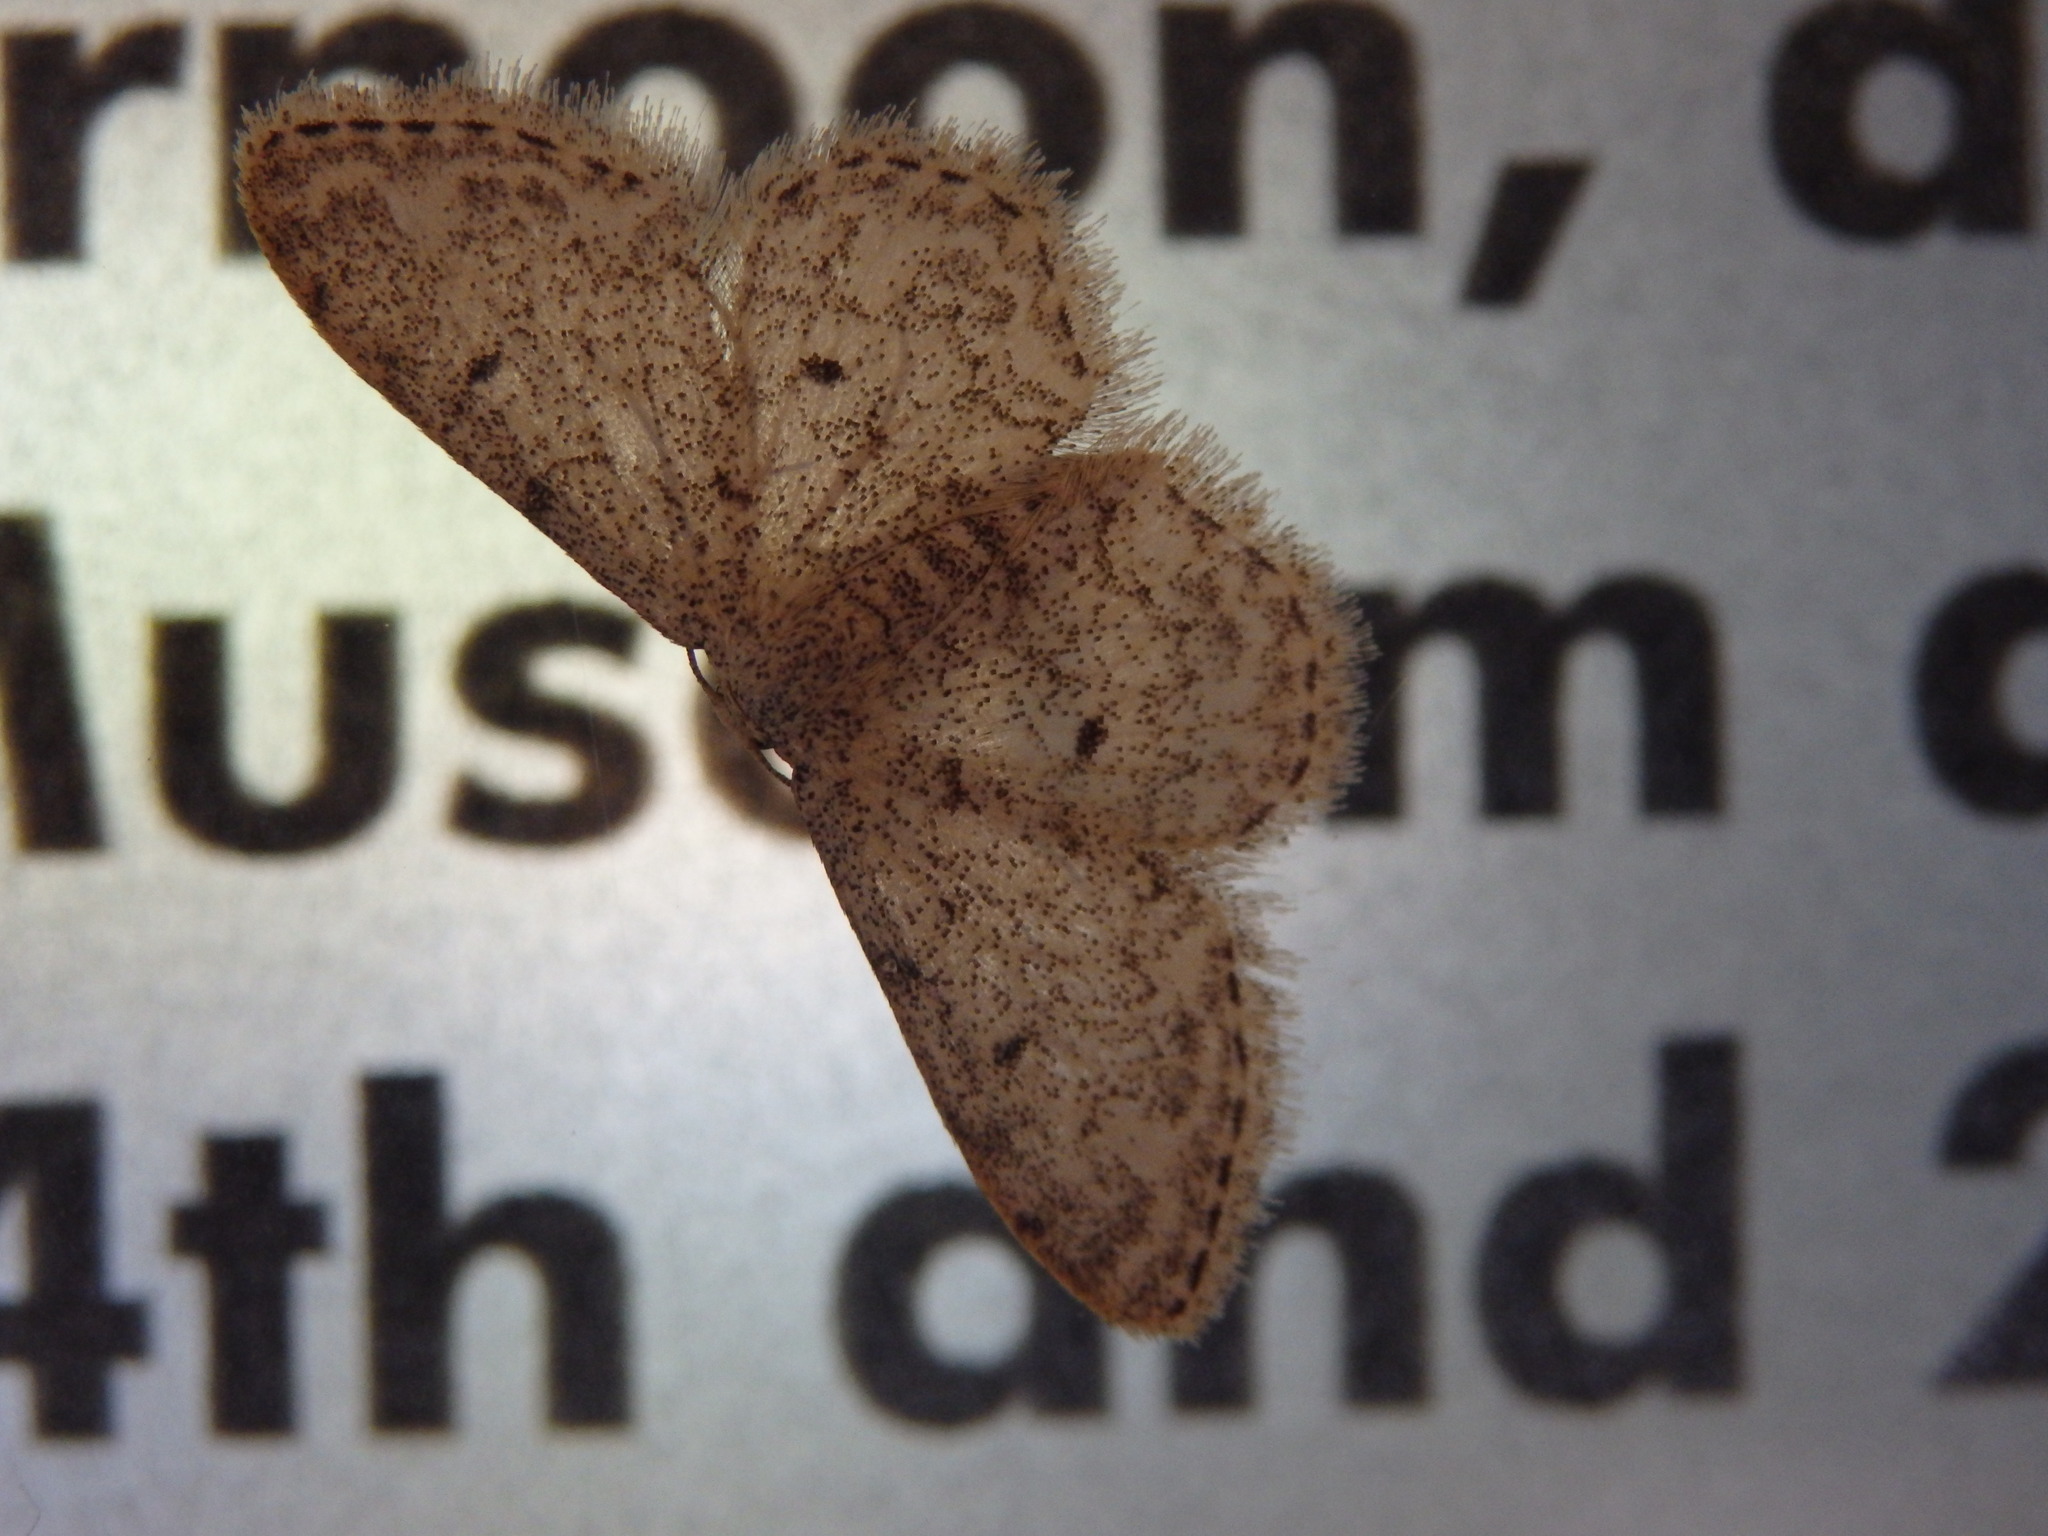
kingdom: Animalia
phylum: Arthropoda
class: Insecta
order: Lepidoptera
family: Geometridae
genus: Idaea
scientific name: Idaea cervantaria
